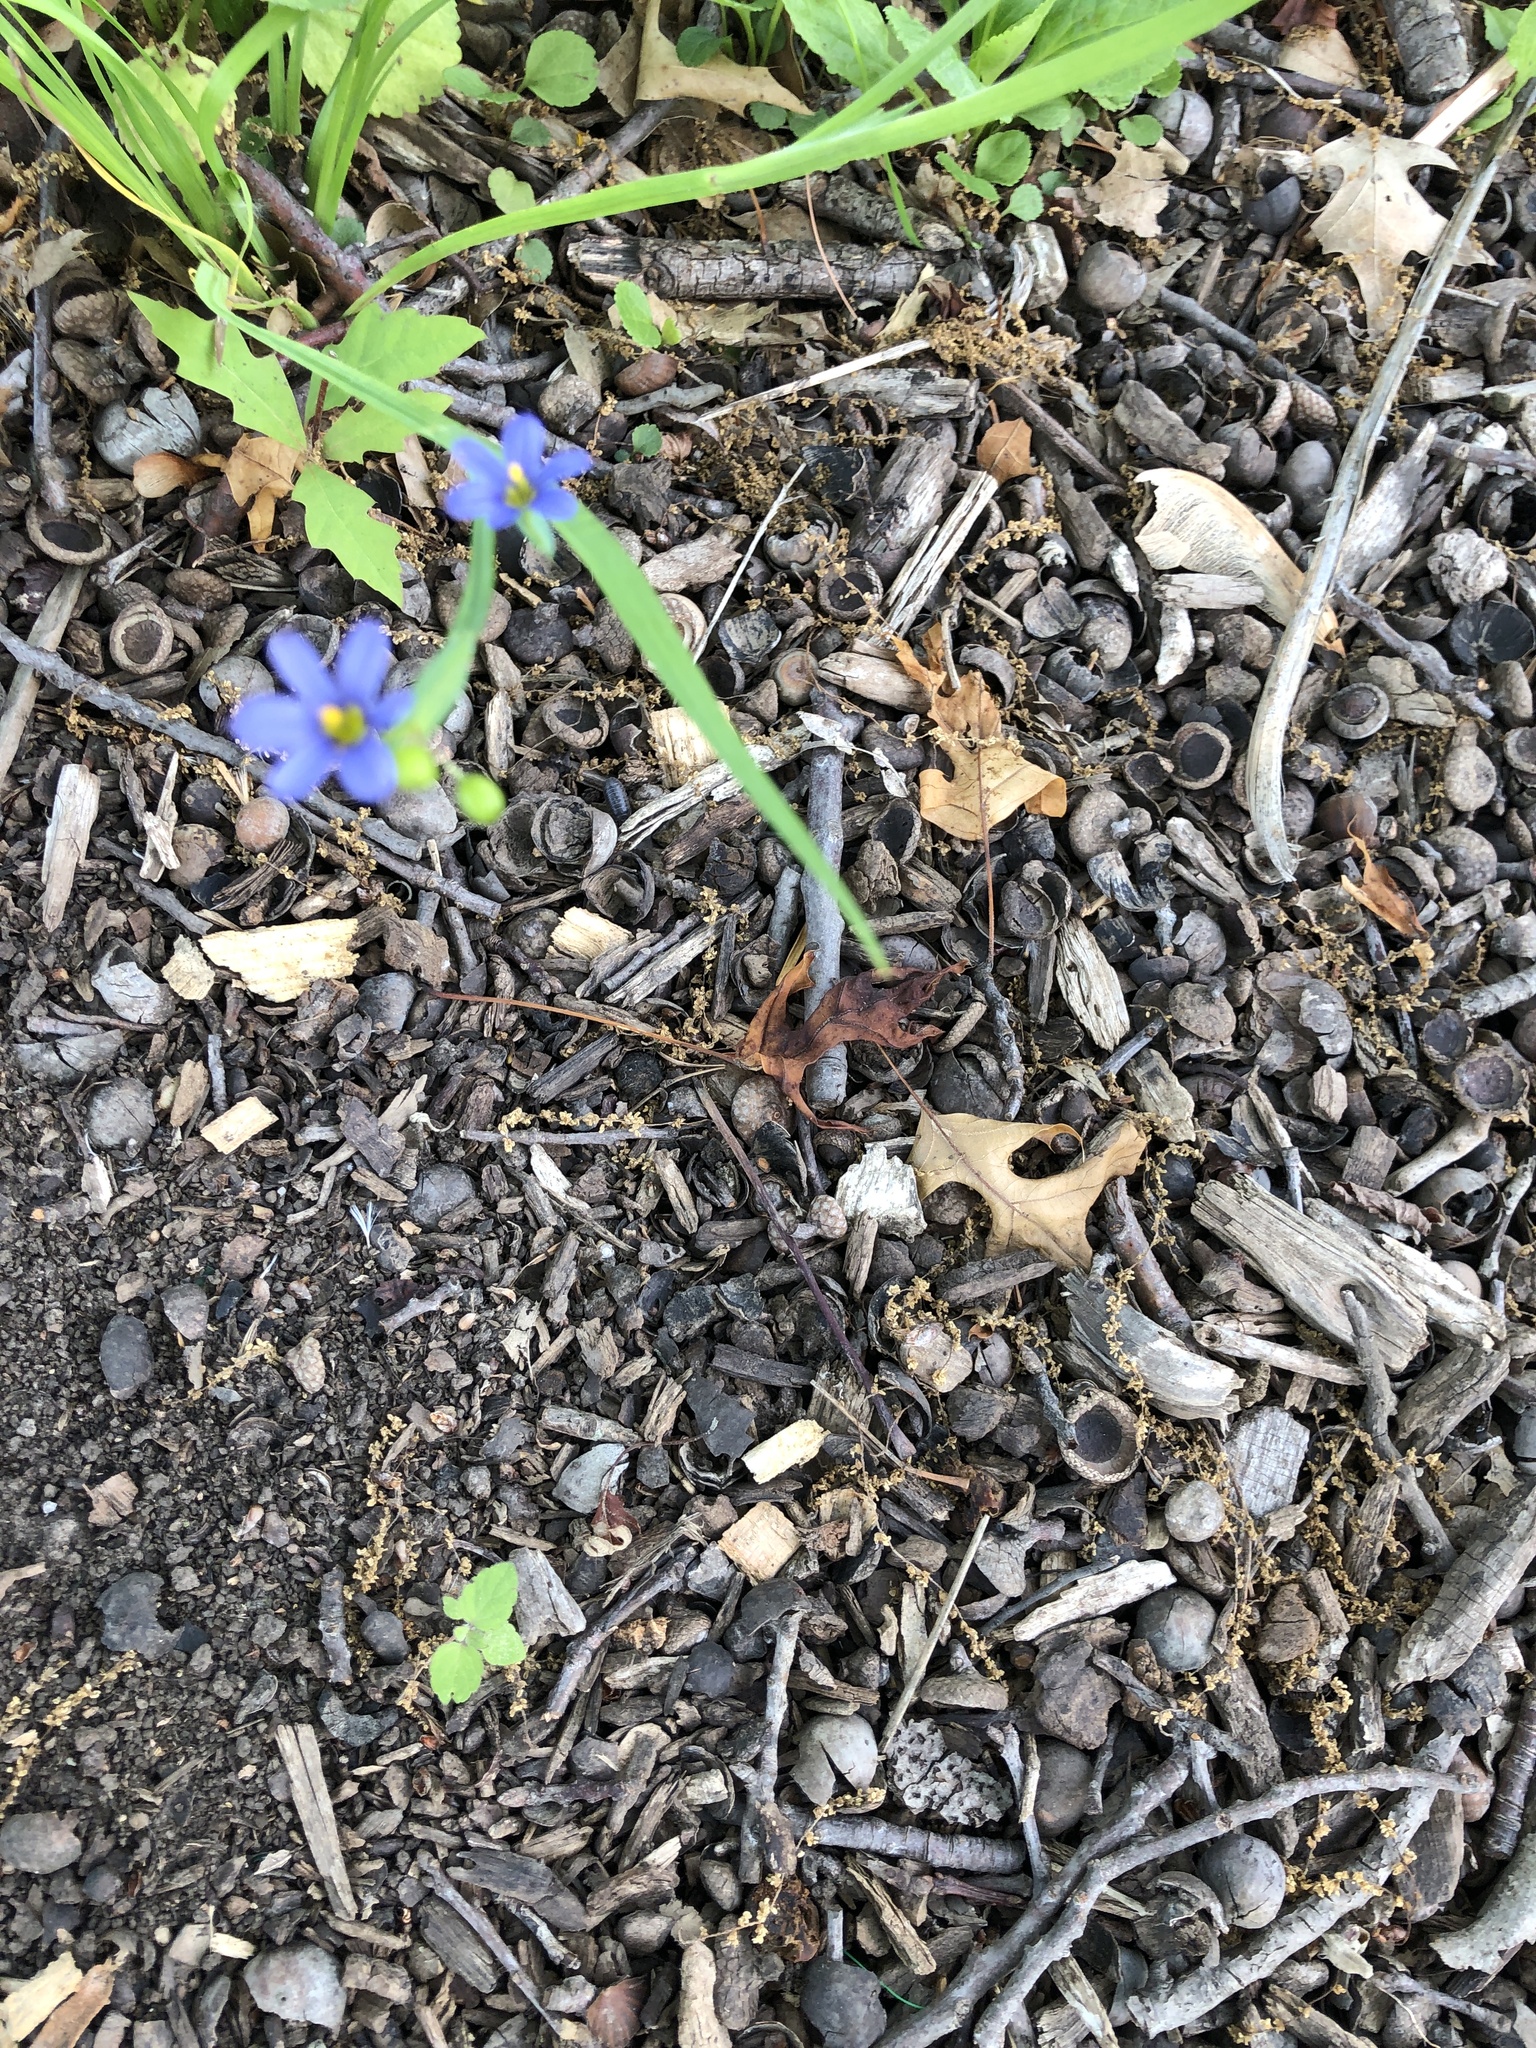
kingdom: Plantae
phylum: Tracheophyta
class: Liliopsida
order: Asparagales
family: Iridaceae
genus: Sisyrinchium
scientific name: Sisyrinchium angustifolium
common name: Narrow-leaf blue-eyed-grass
